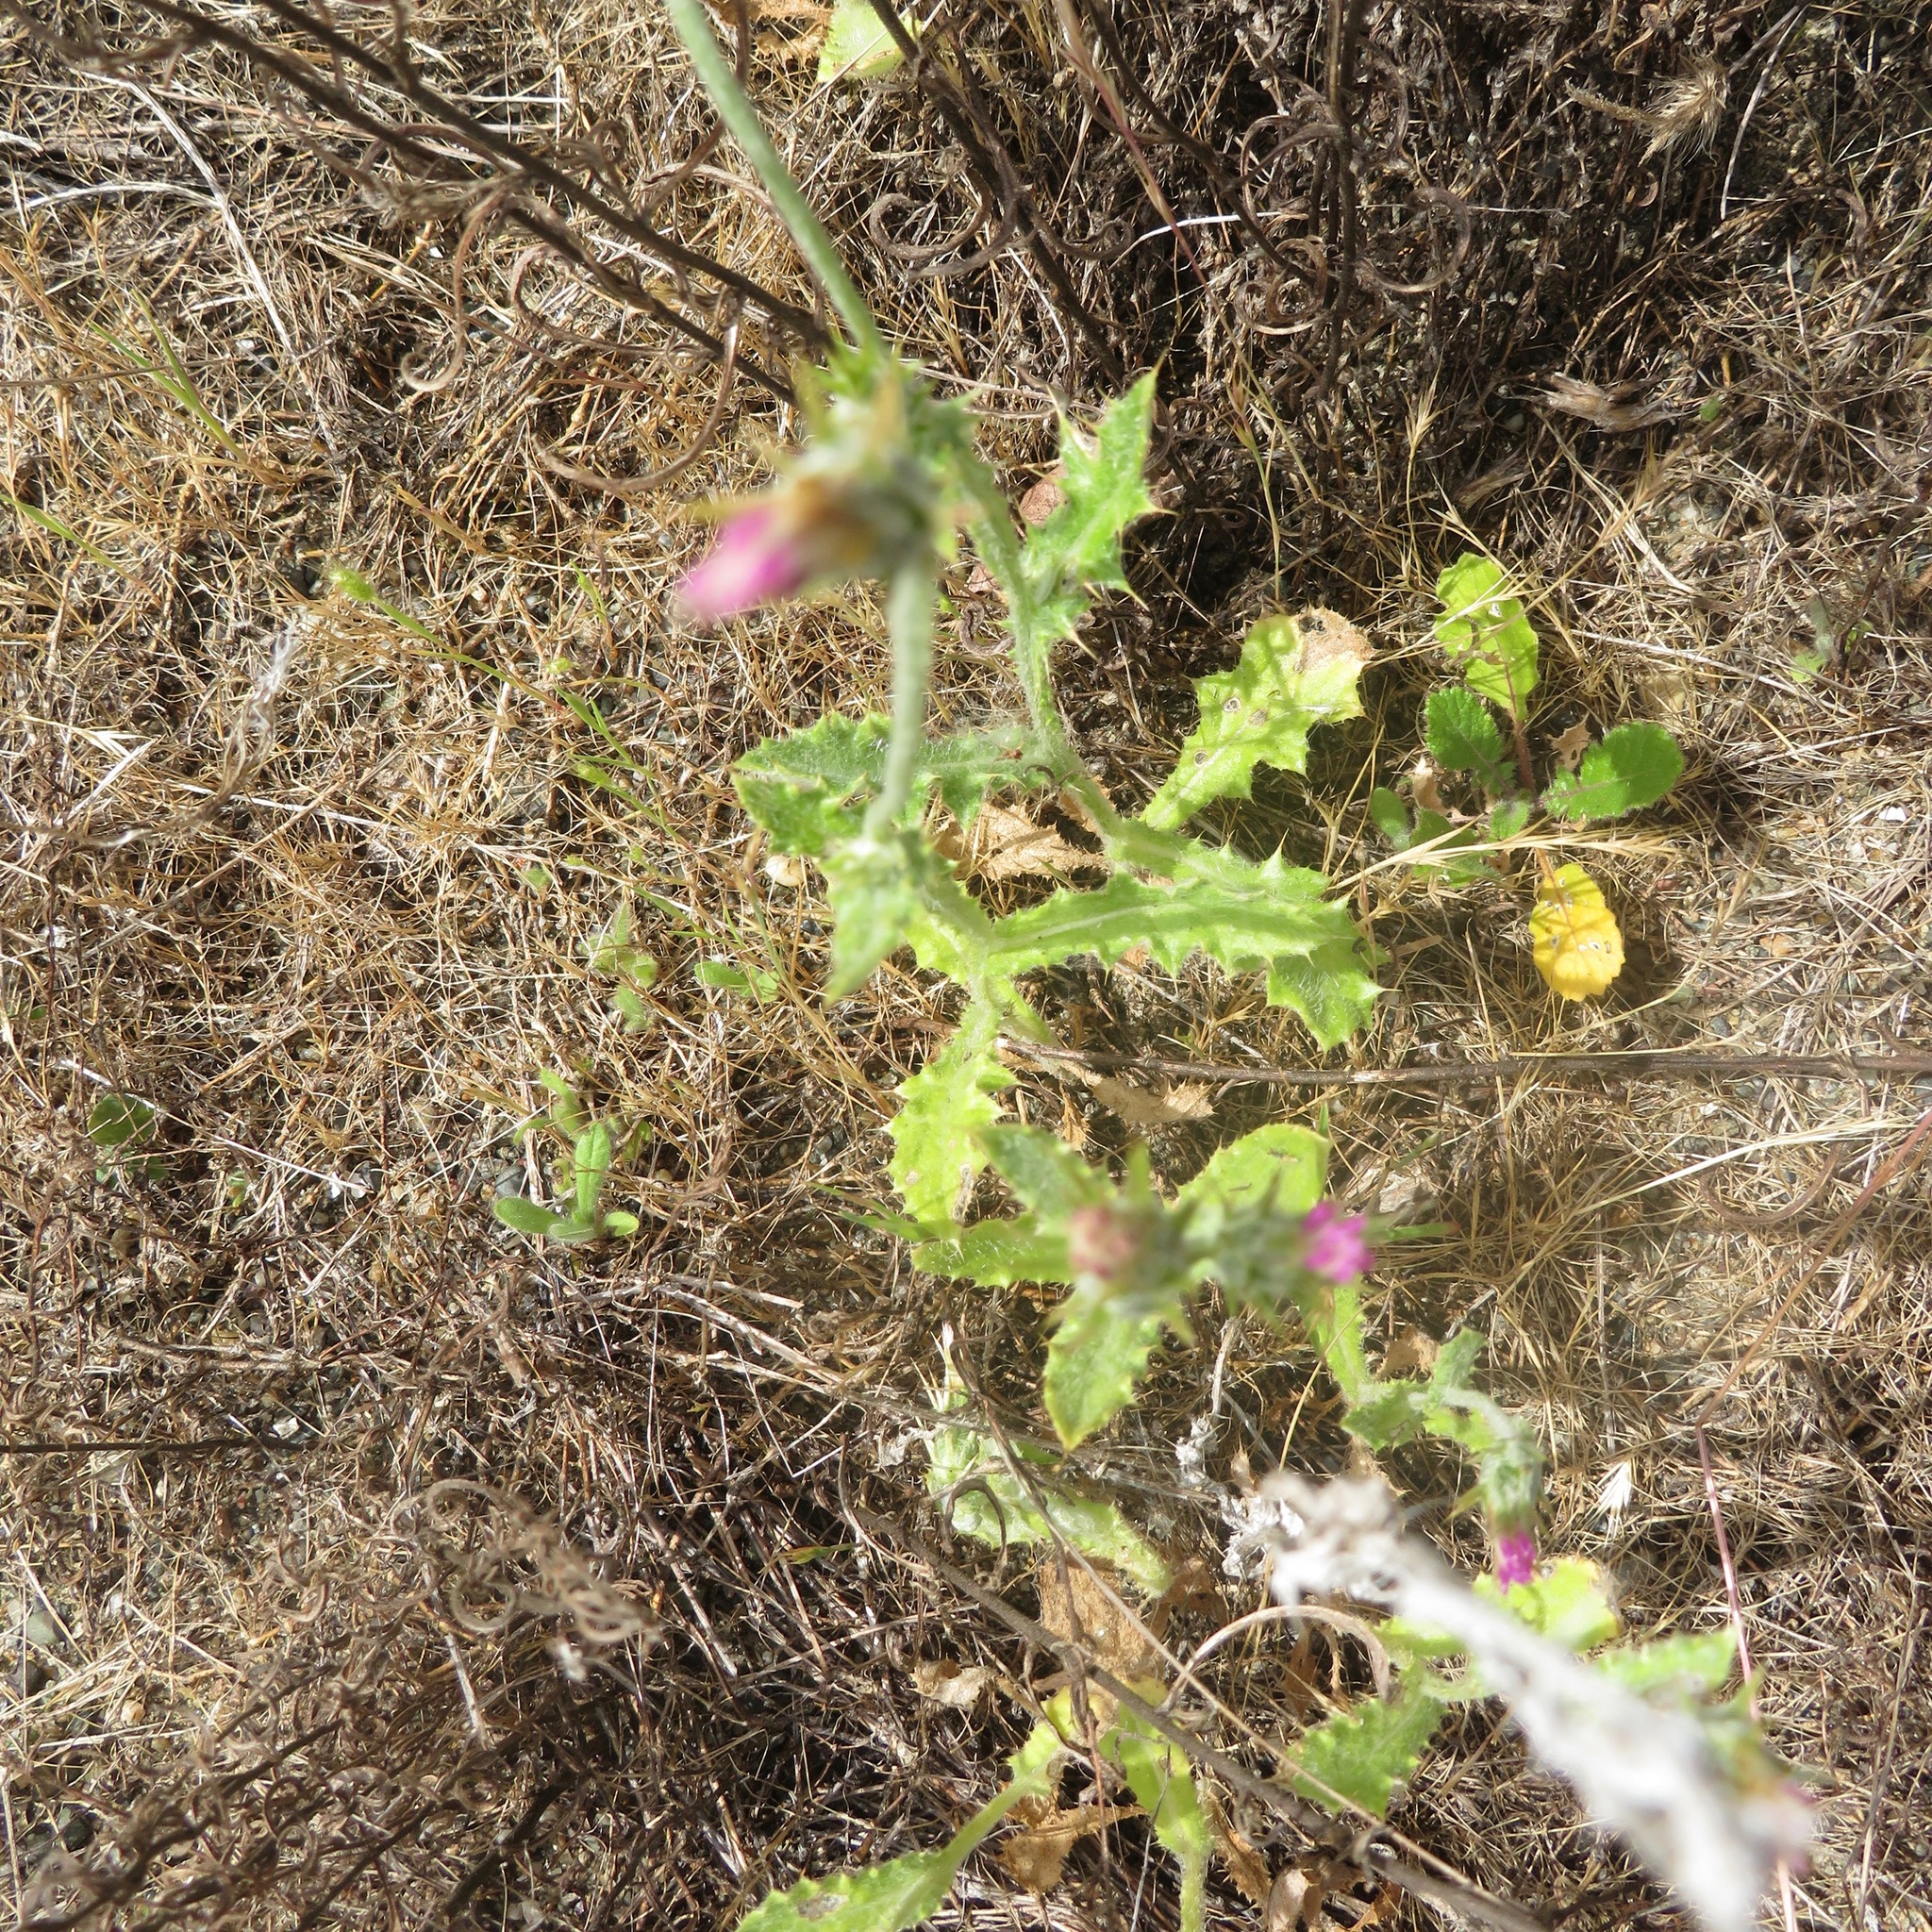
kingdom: Plantae
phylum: Tracheophyta
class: Magnoliopsida
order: Asterales
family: Asteraceae
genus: Carduus
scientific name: Carduus pycnocephalus
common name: Plymouth thistle
